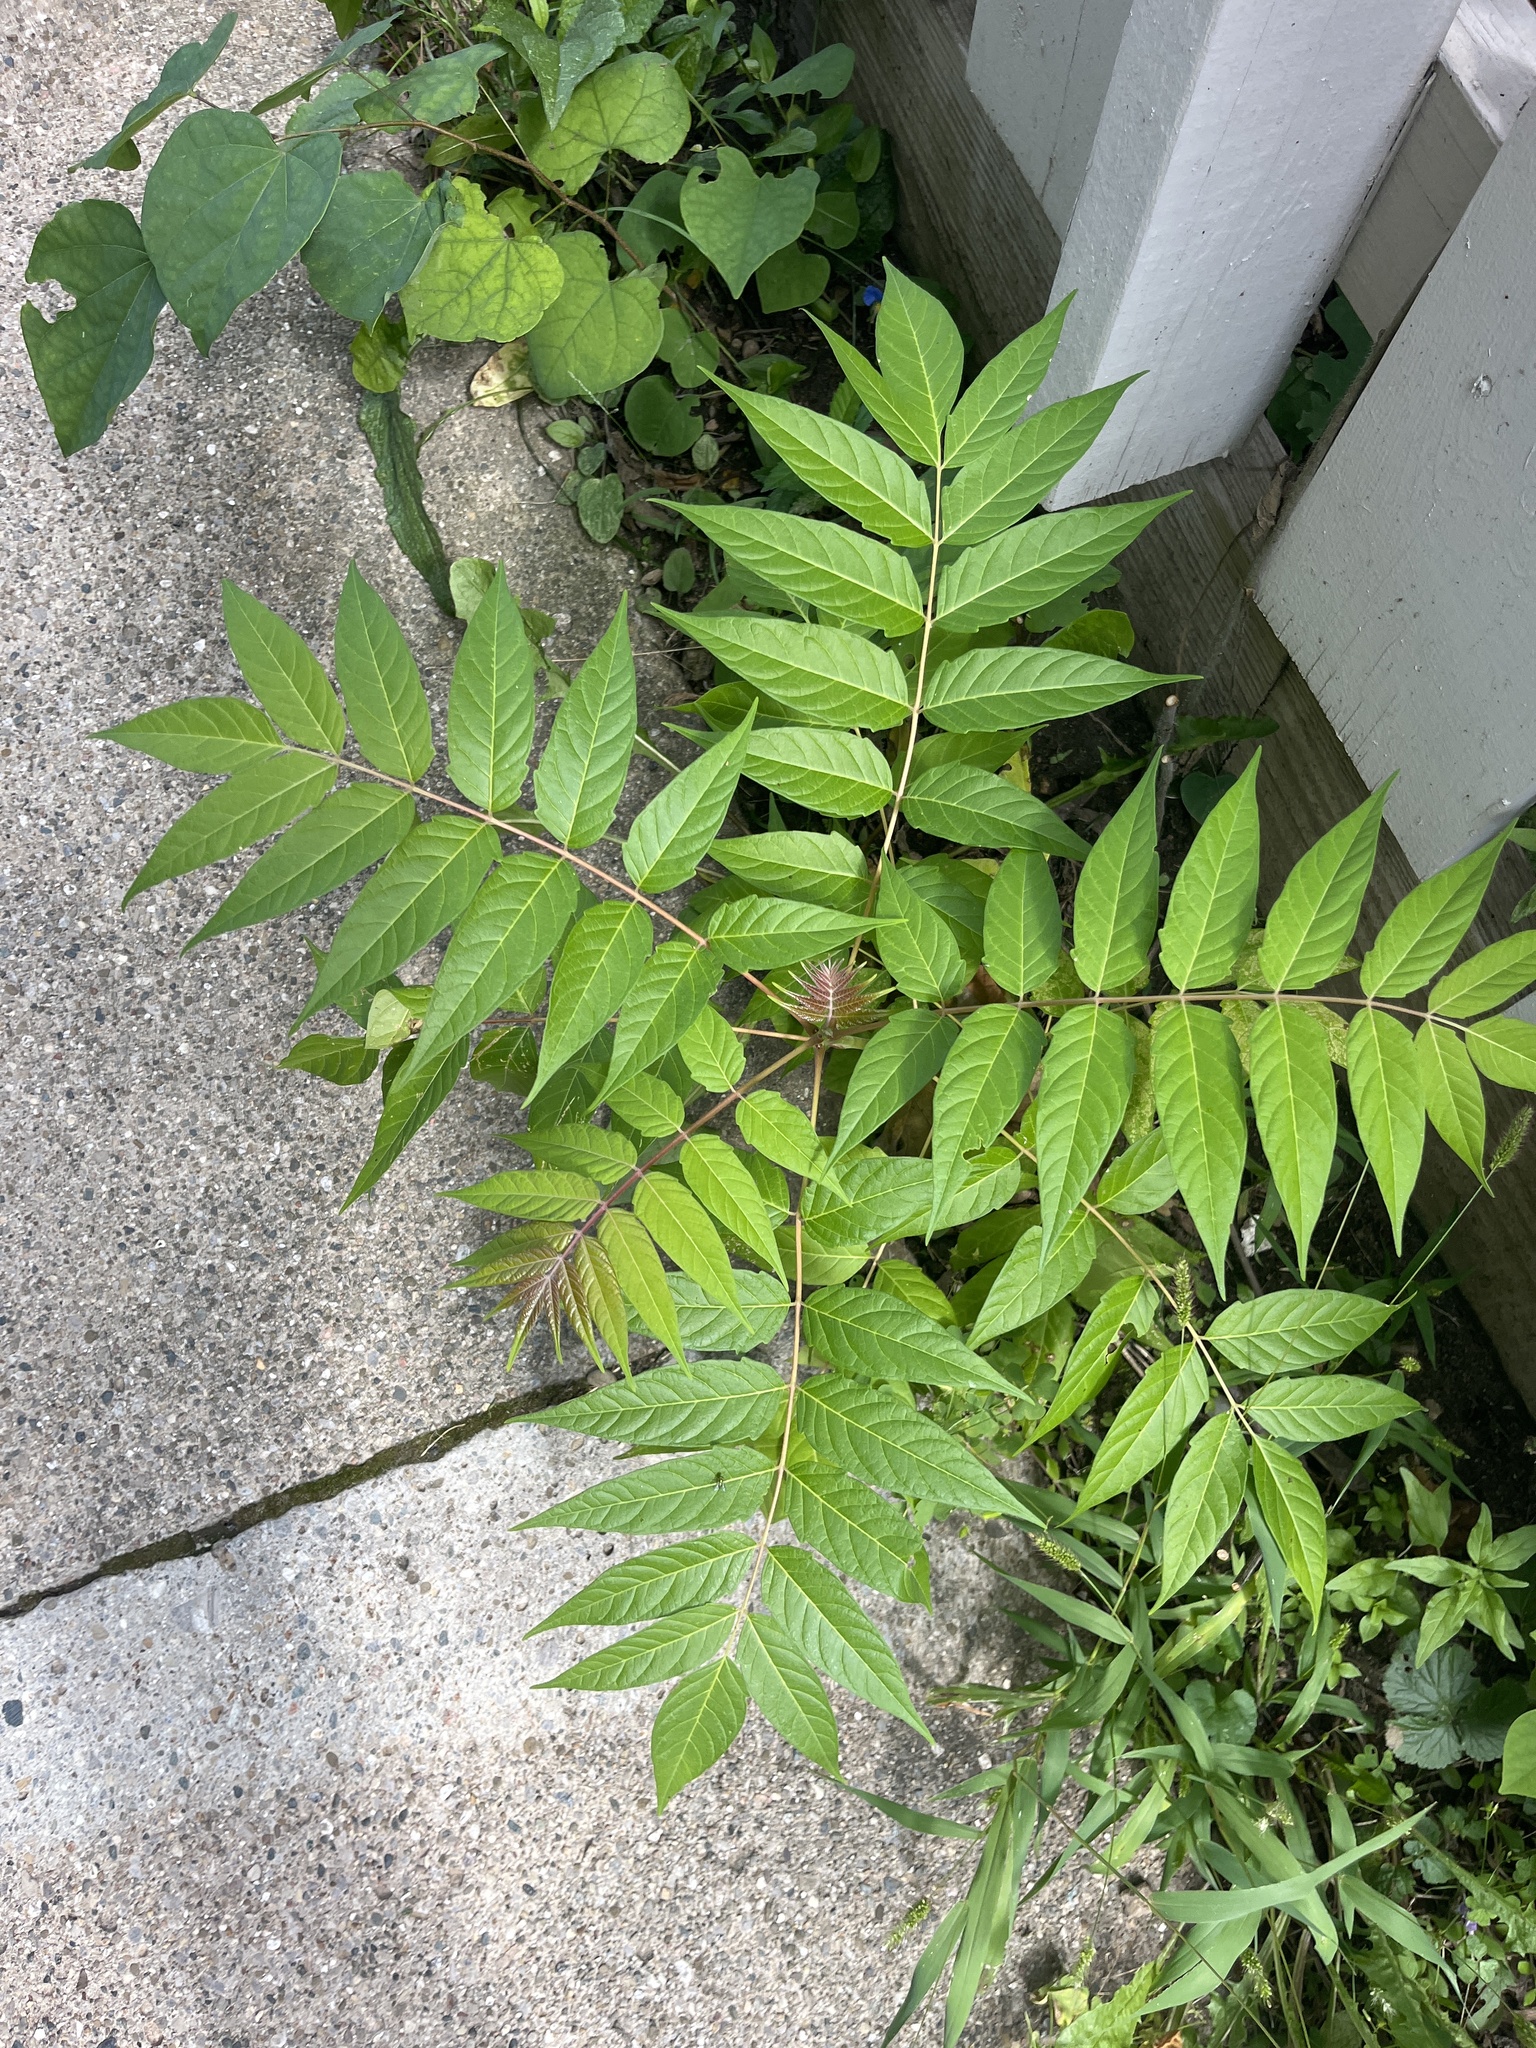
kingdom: Plantae
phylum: Tracheophyta
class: Magnoliopsida
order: Sapindales
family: Simaroubaceae
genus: Ailanthus
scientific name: Ailanthus altissima
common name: Tree-of-heaven
